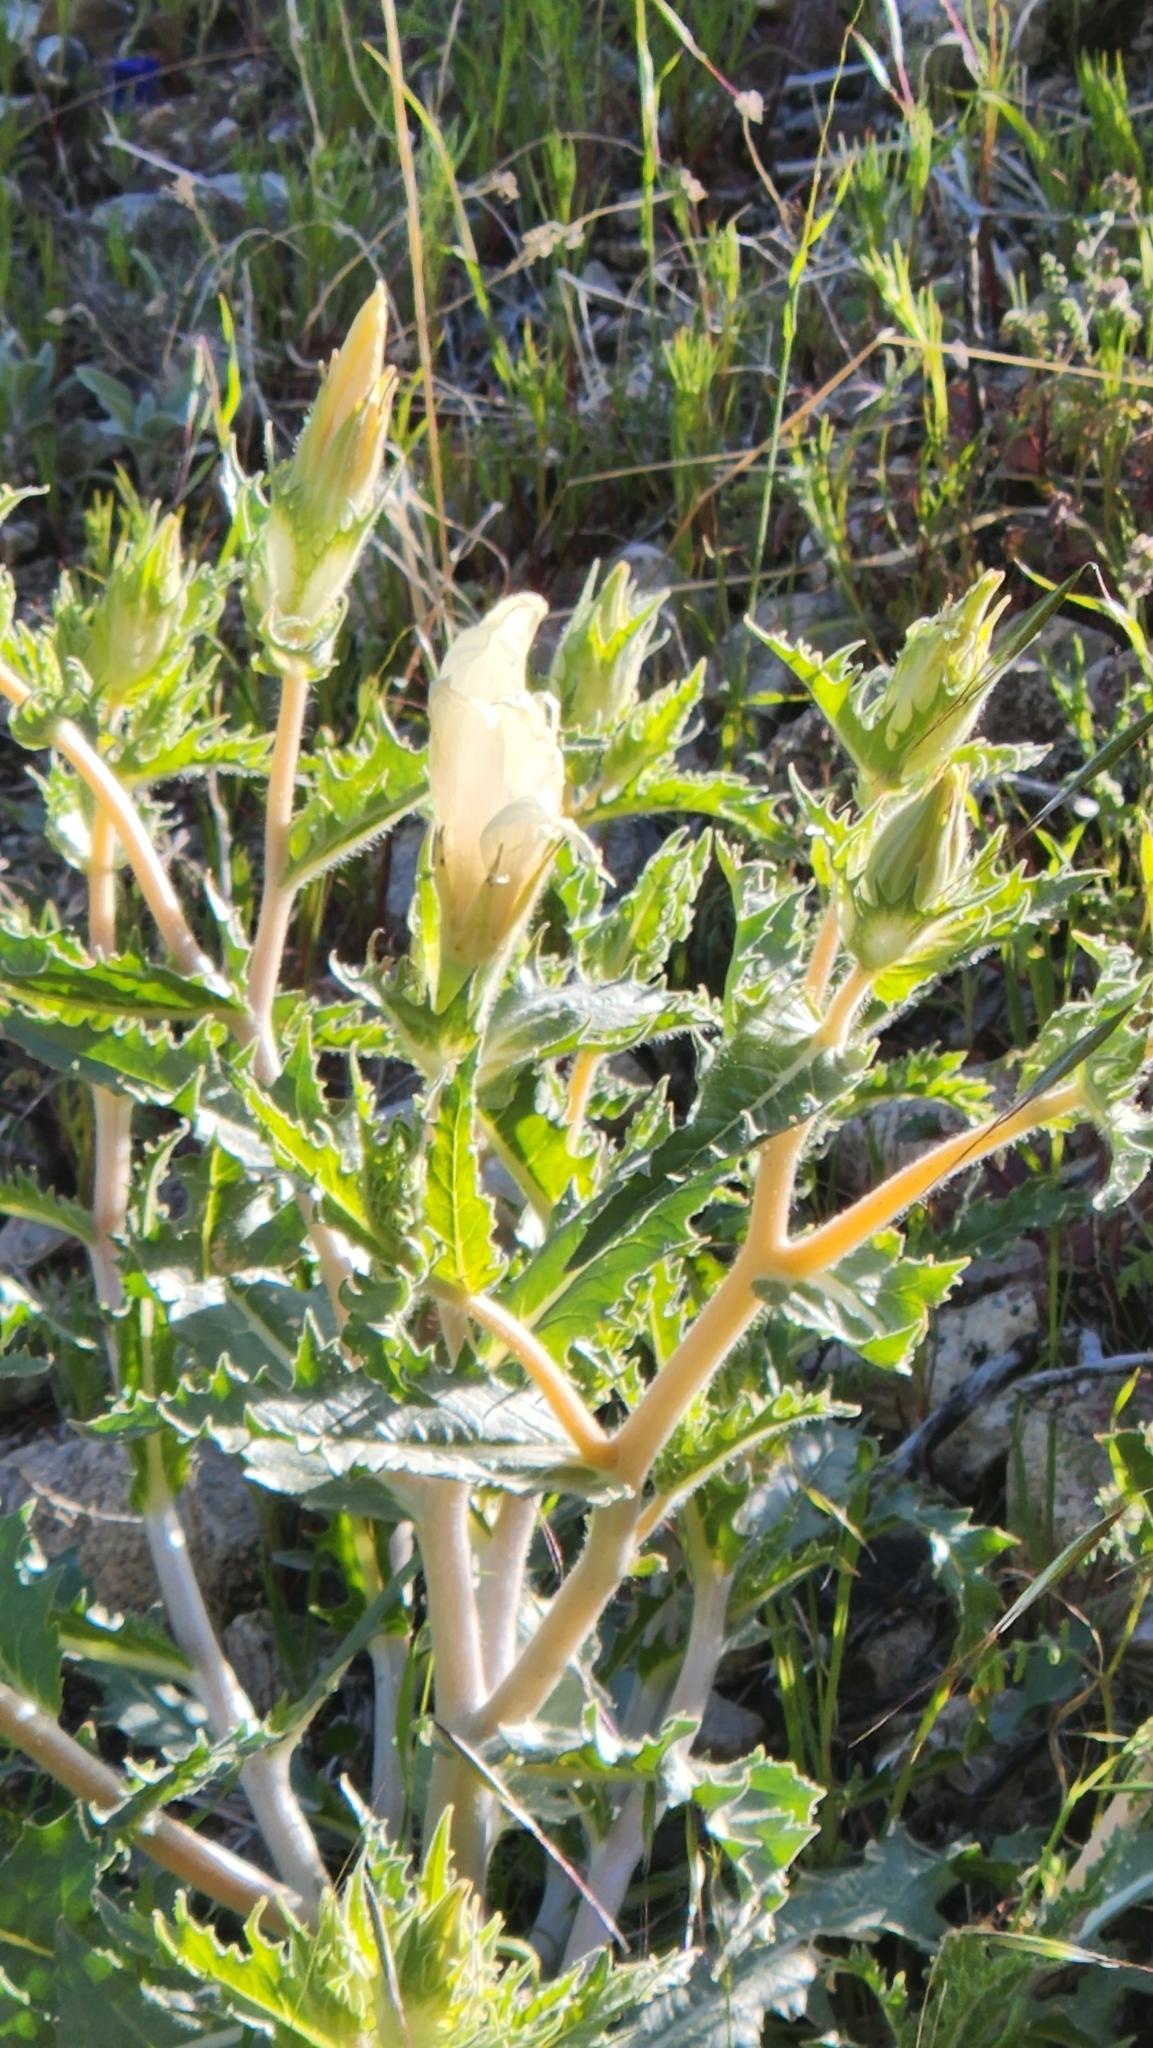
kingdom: Plantae
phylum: Tracheophyta
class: Magnoliopsida
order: Cornales
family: Loasaceae
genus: Mentzelia
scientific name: Mentzelia involucrata
